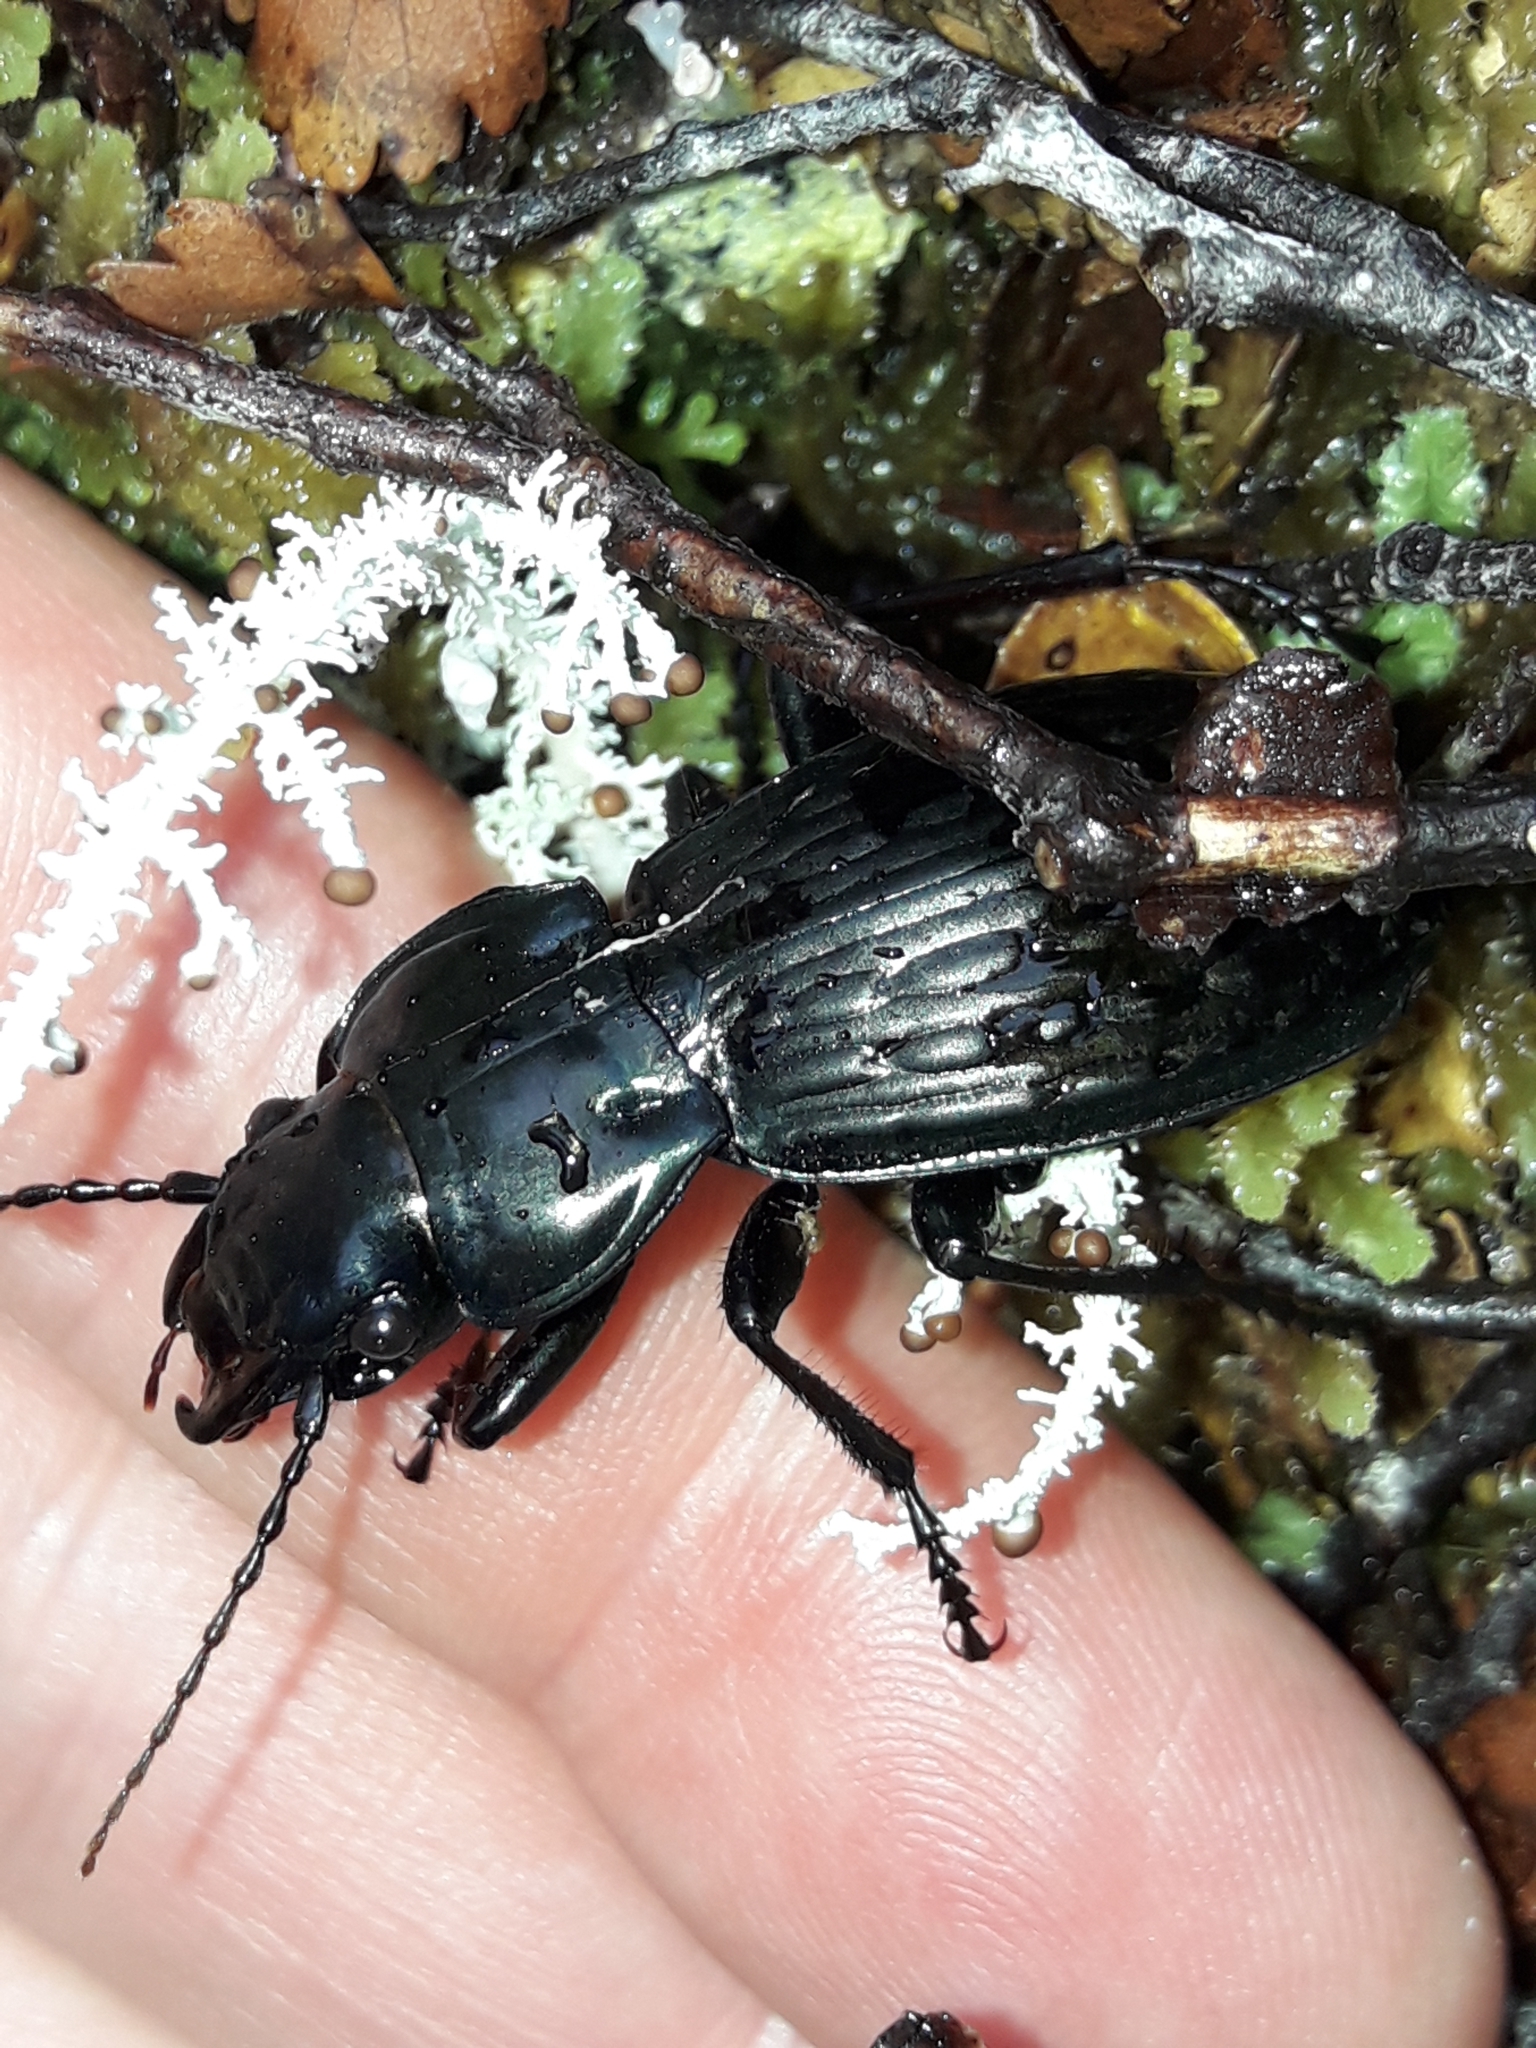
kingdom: Animalia
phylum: Arthropoda
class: Insecta
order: Coleoptera
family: Carabidae
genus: Megadromus
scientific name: Megadromus bullatus
